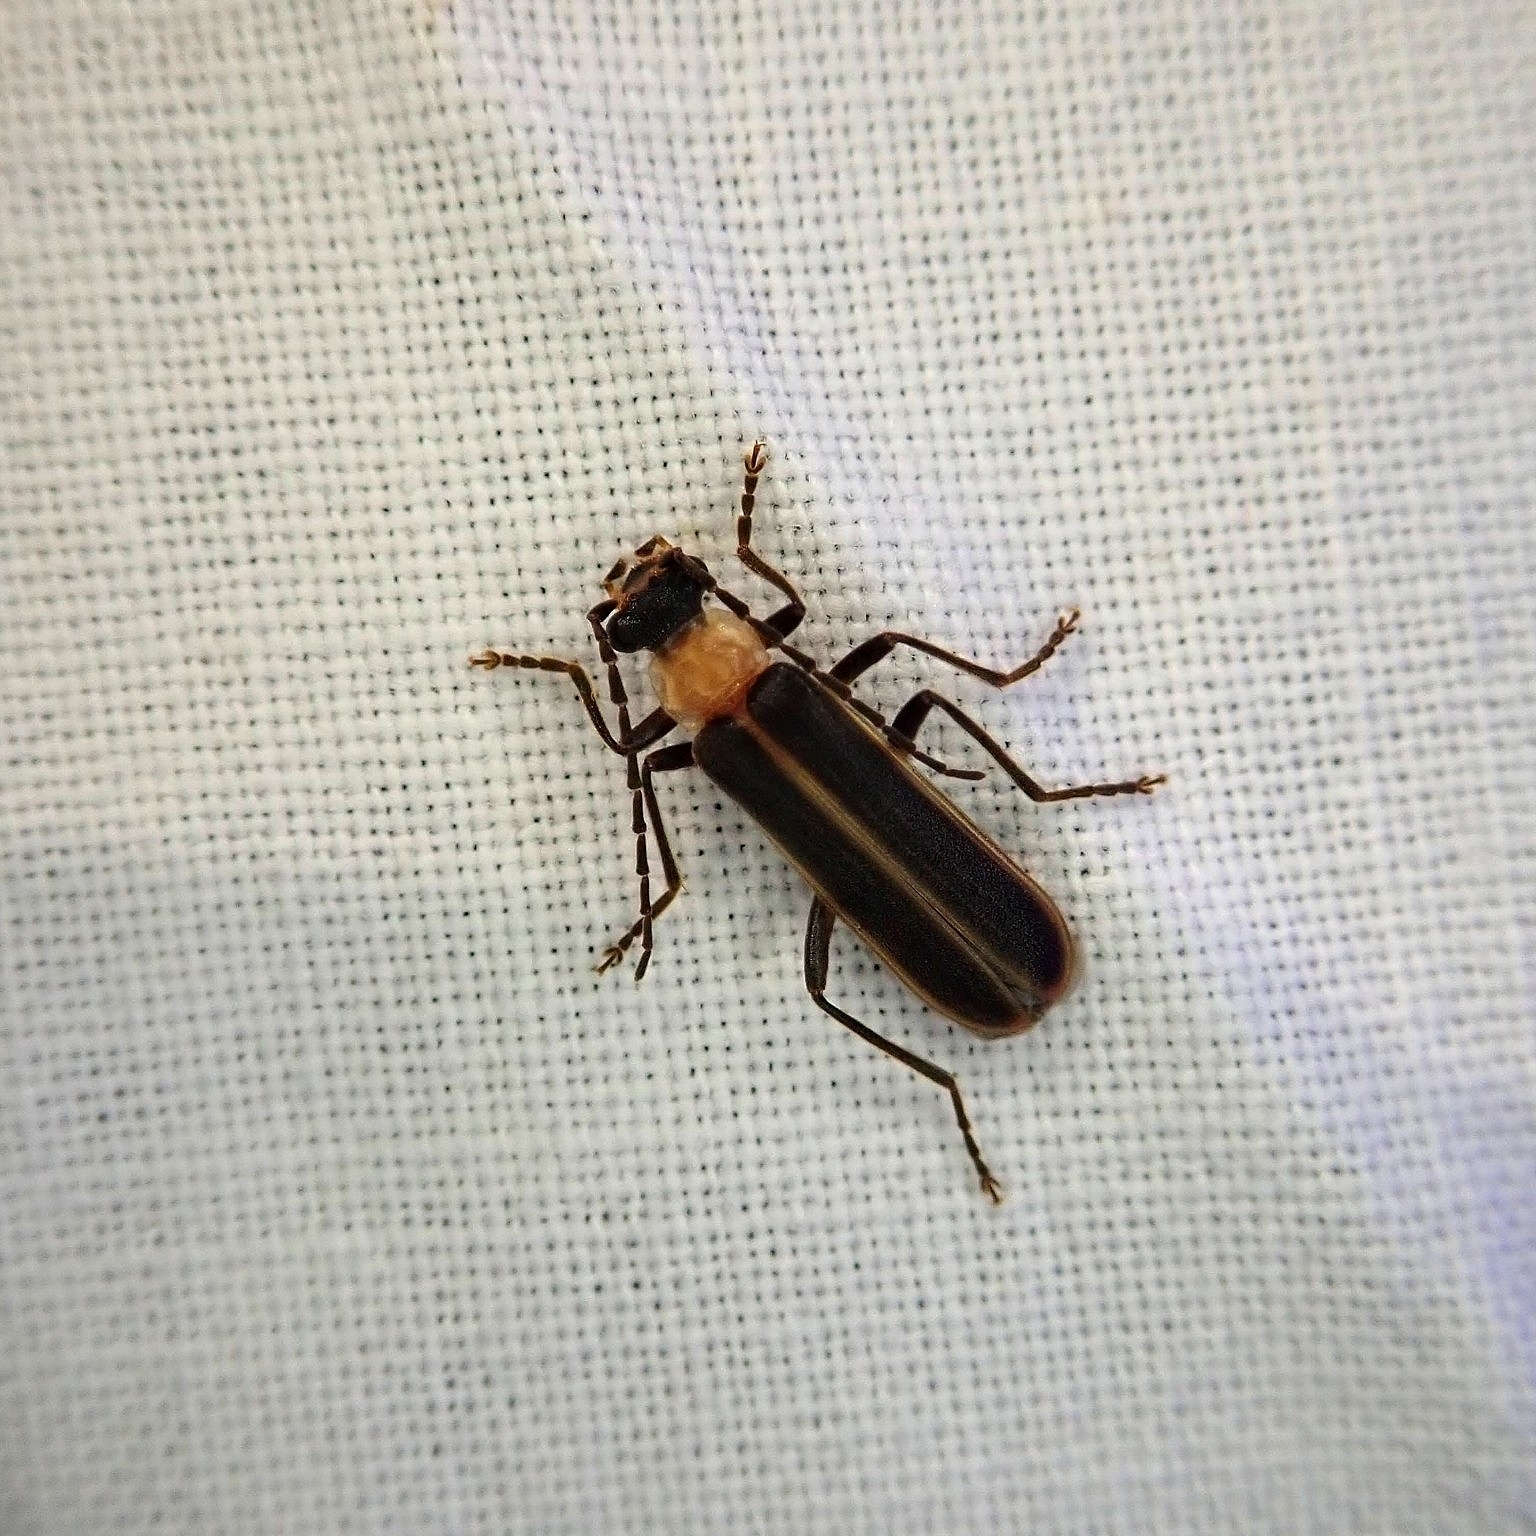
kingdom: Animalia
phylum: Arthropoda
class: Insecta
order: Coleoptera
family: Cantharidae
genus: Podabrus
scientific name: Podabrus flavicollis
